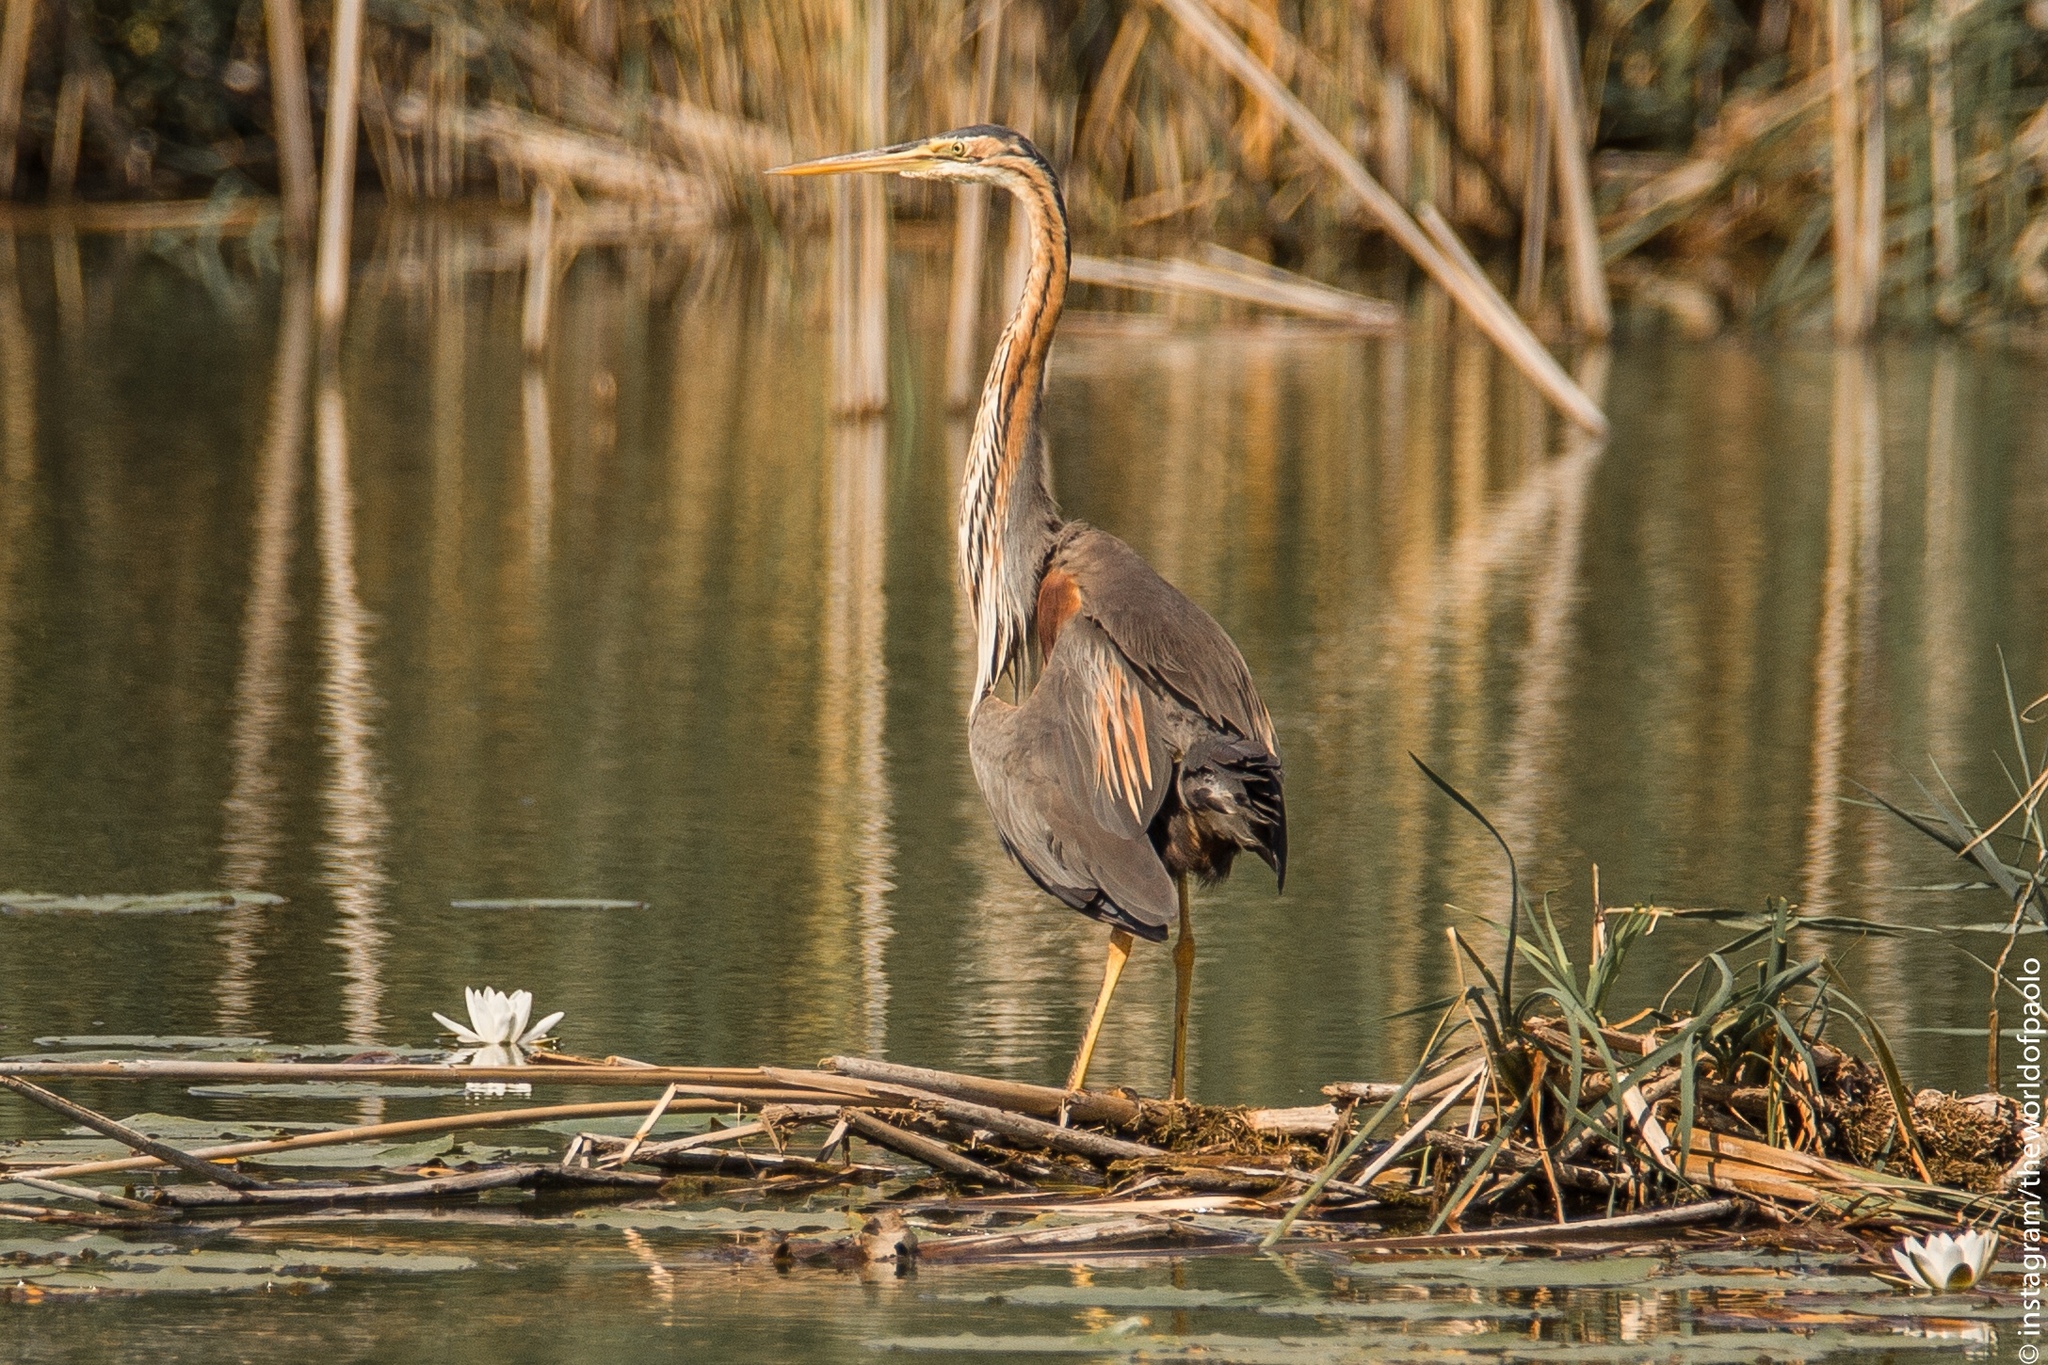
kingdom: Animalia
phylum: Chordata
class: Aves
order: Pelecaniformes
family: Ardeidae
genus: Ardea
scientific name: Ardea purpurea
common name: Purple heron
